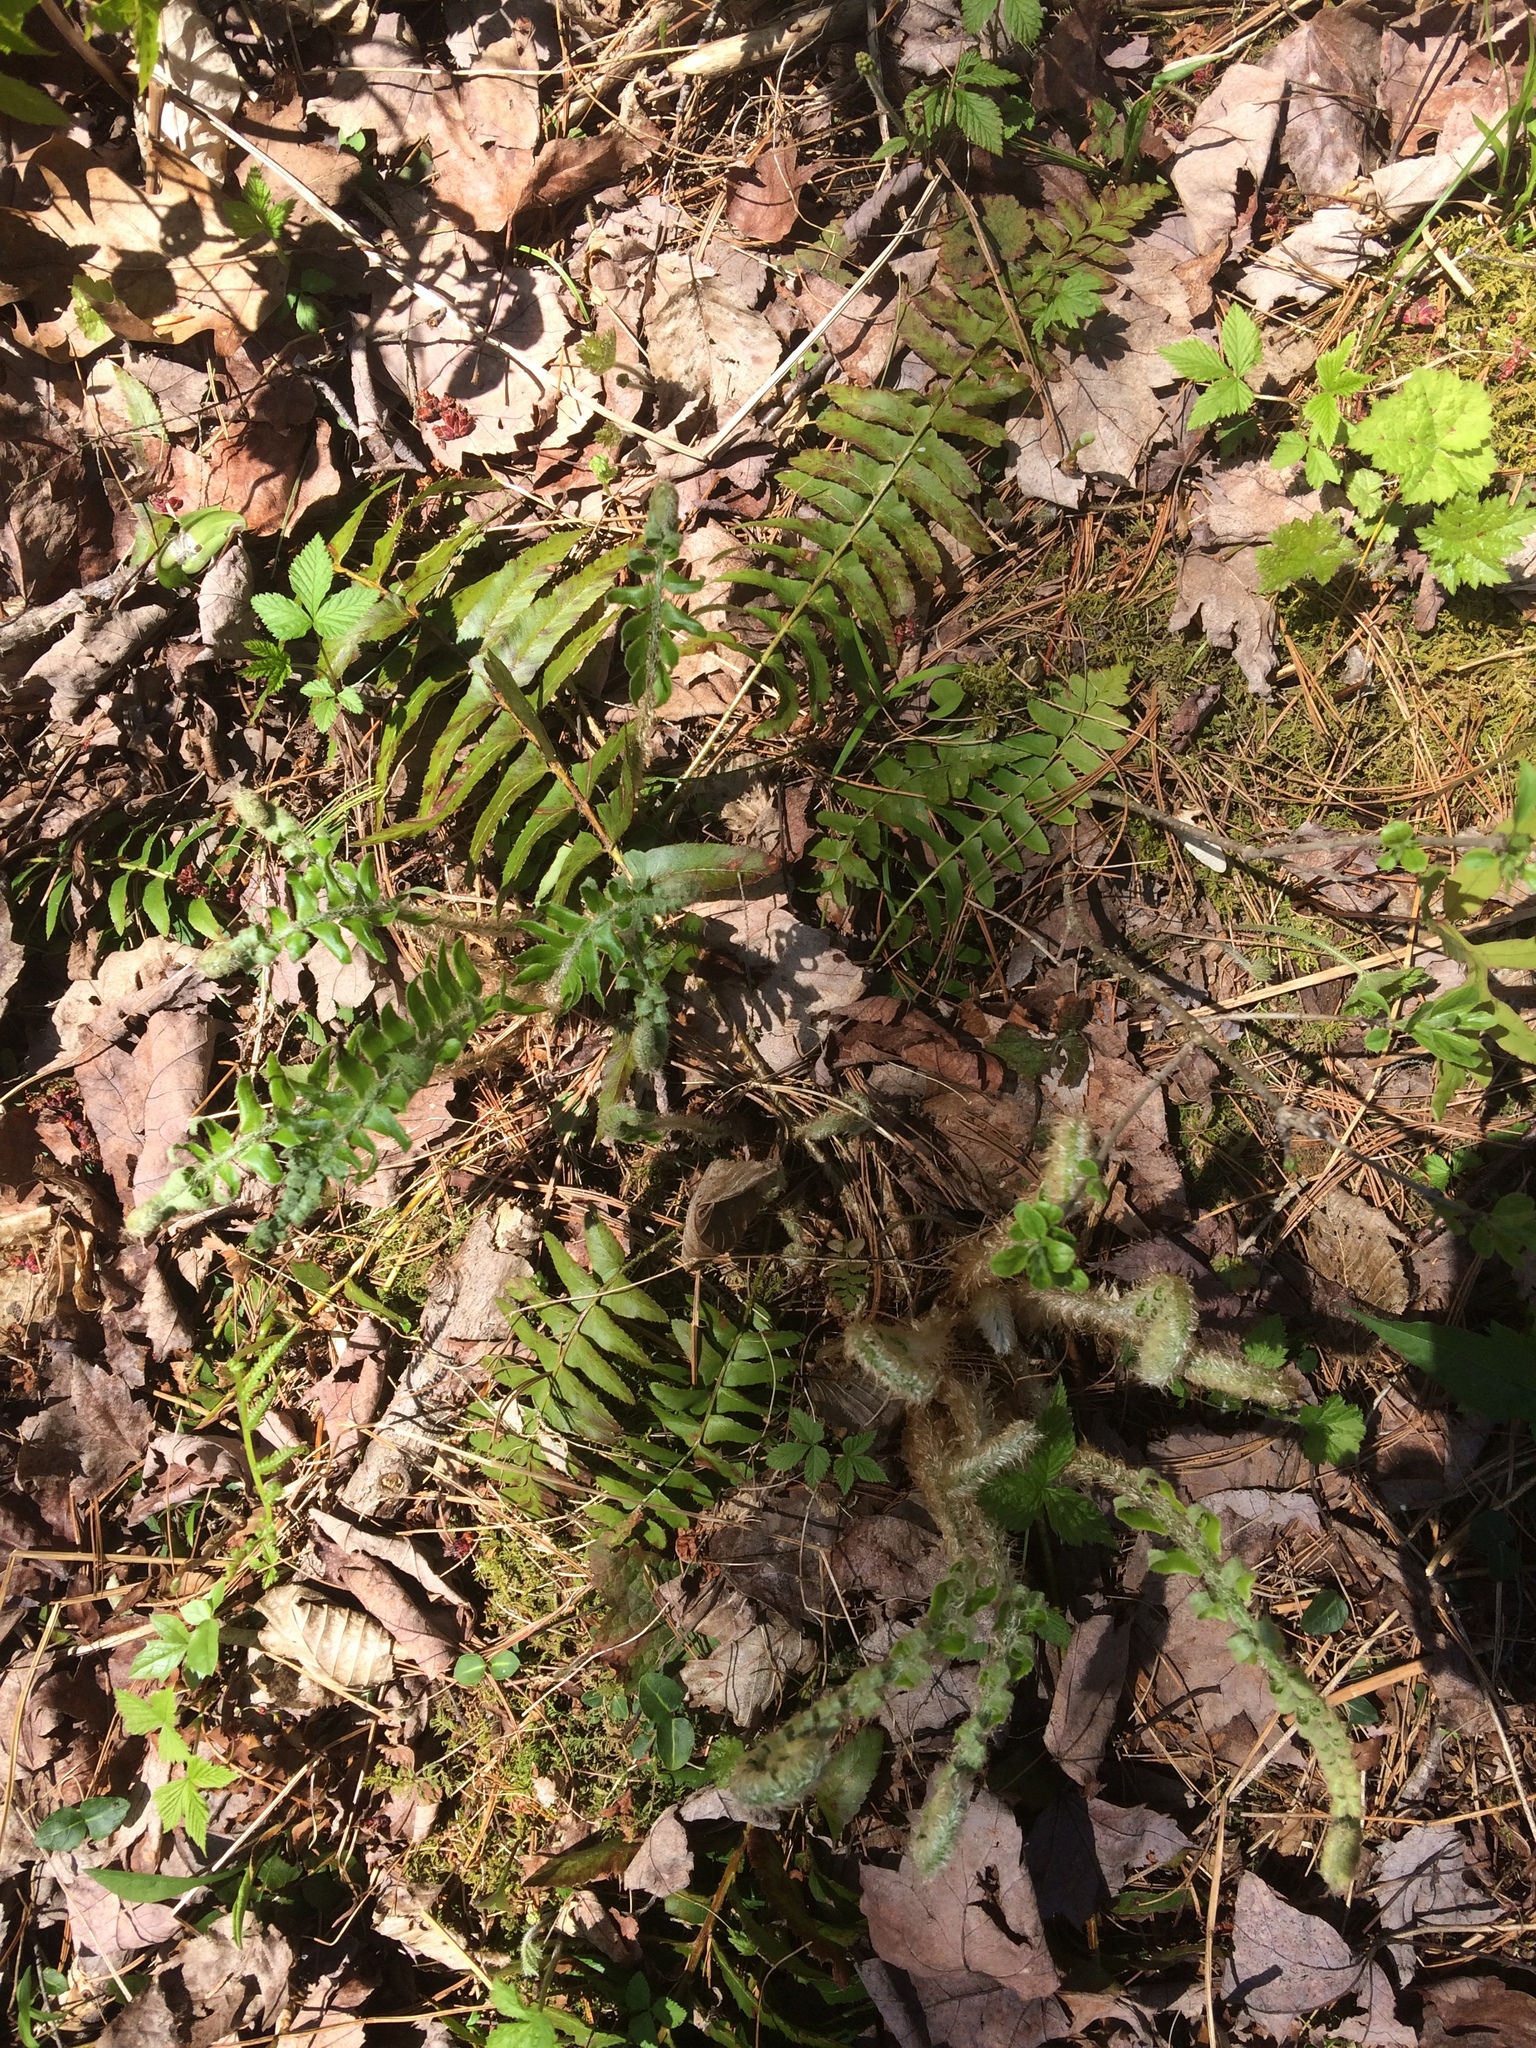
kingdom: Plantae
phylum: Tracheophyta
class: Polypodiopsida
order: Polypodiales
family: Dryopteridaceae
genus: Polystichum
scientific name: Polystichum acrostichoides
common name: Christmas fern
